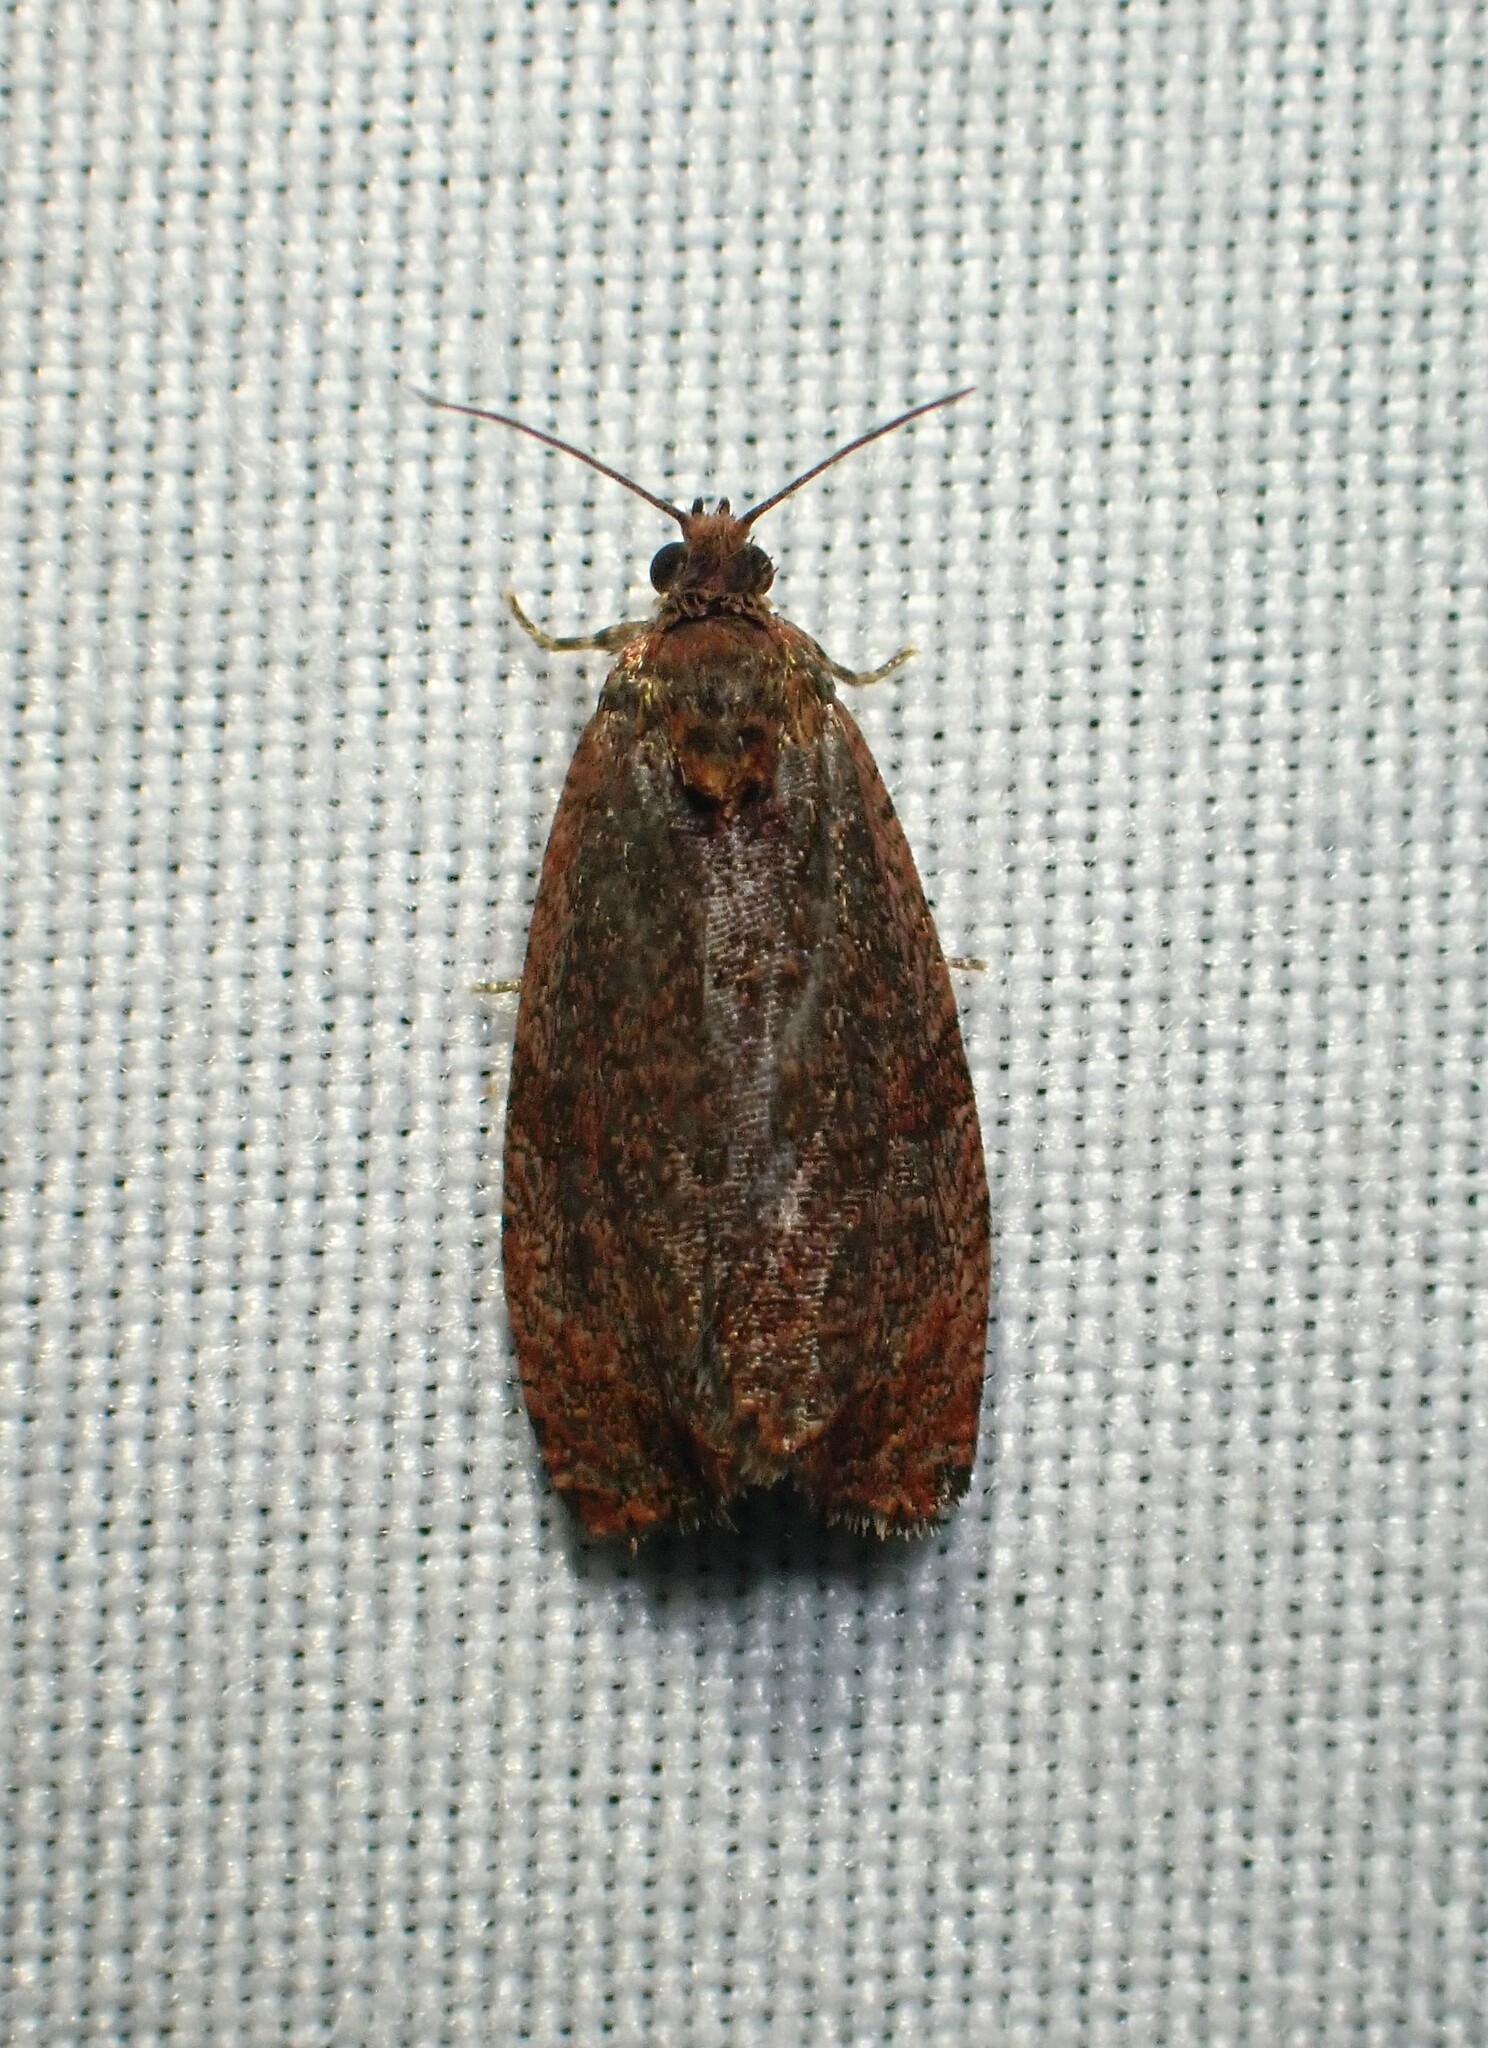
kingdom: Animalia
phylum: Arthropoda
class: Insecta
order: Lepidoptera
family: Tortricidae
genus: Evora
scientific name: Evora hemidesma
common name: Spirea leaftier moth
